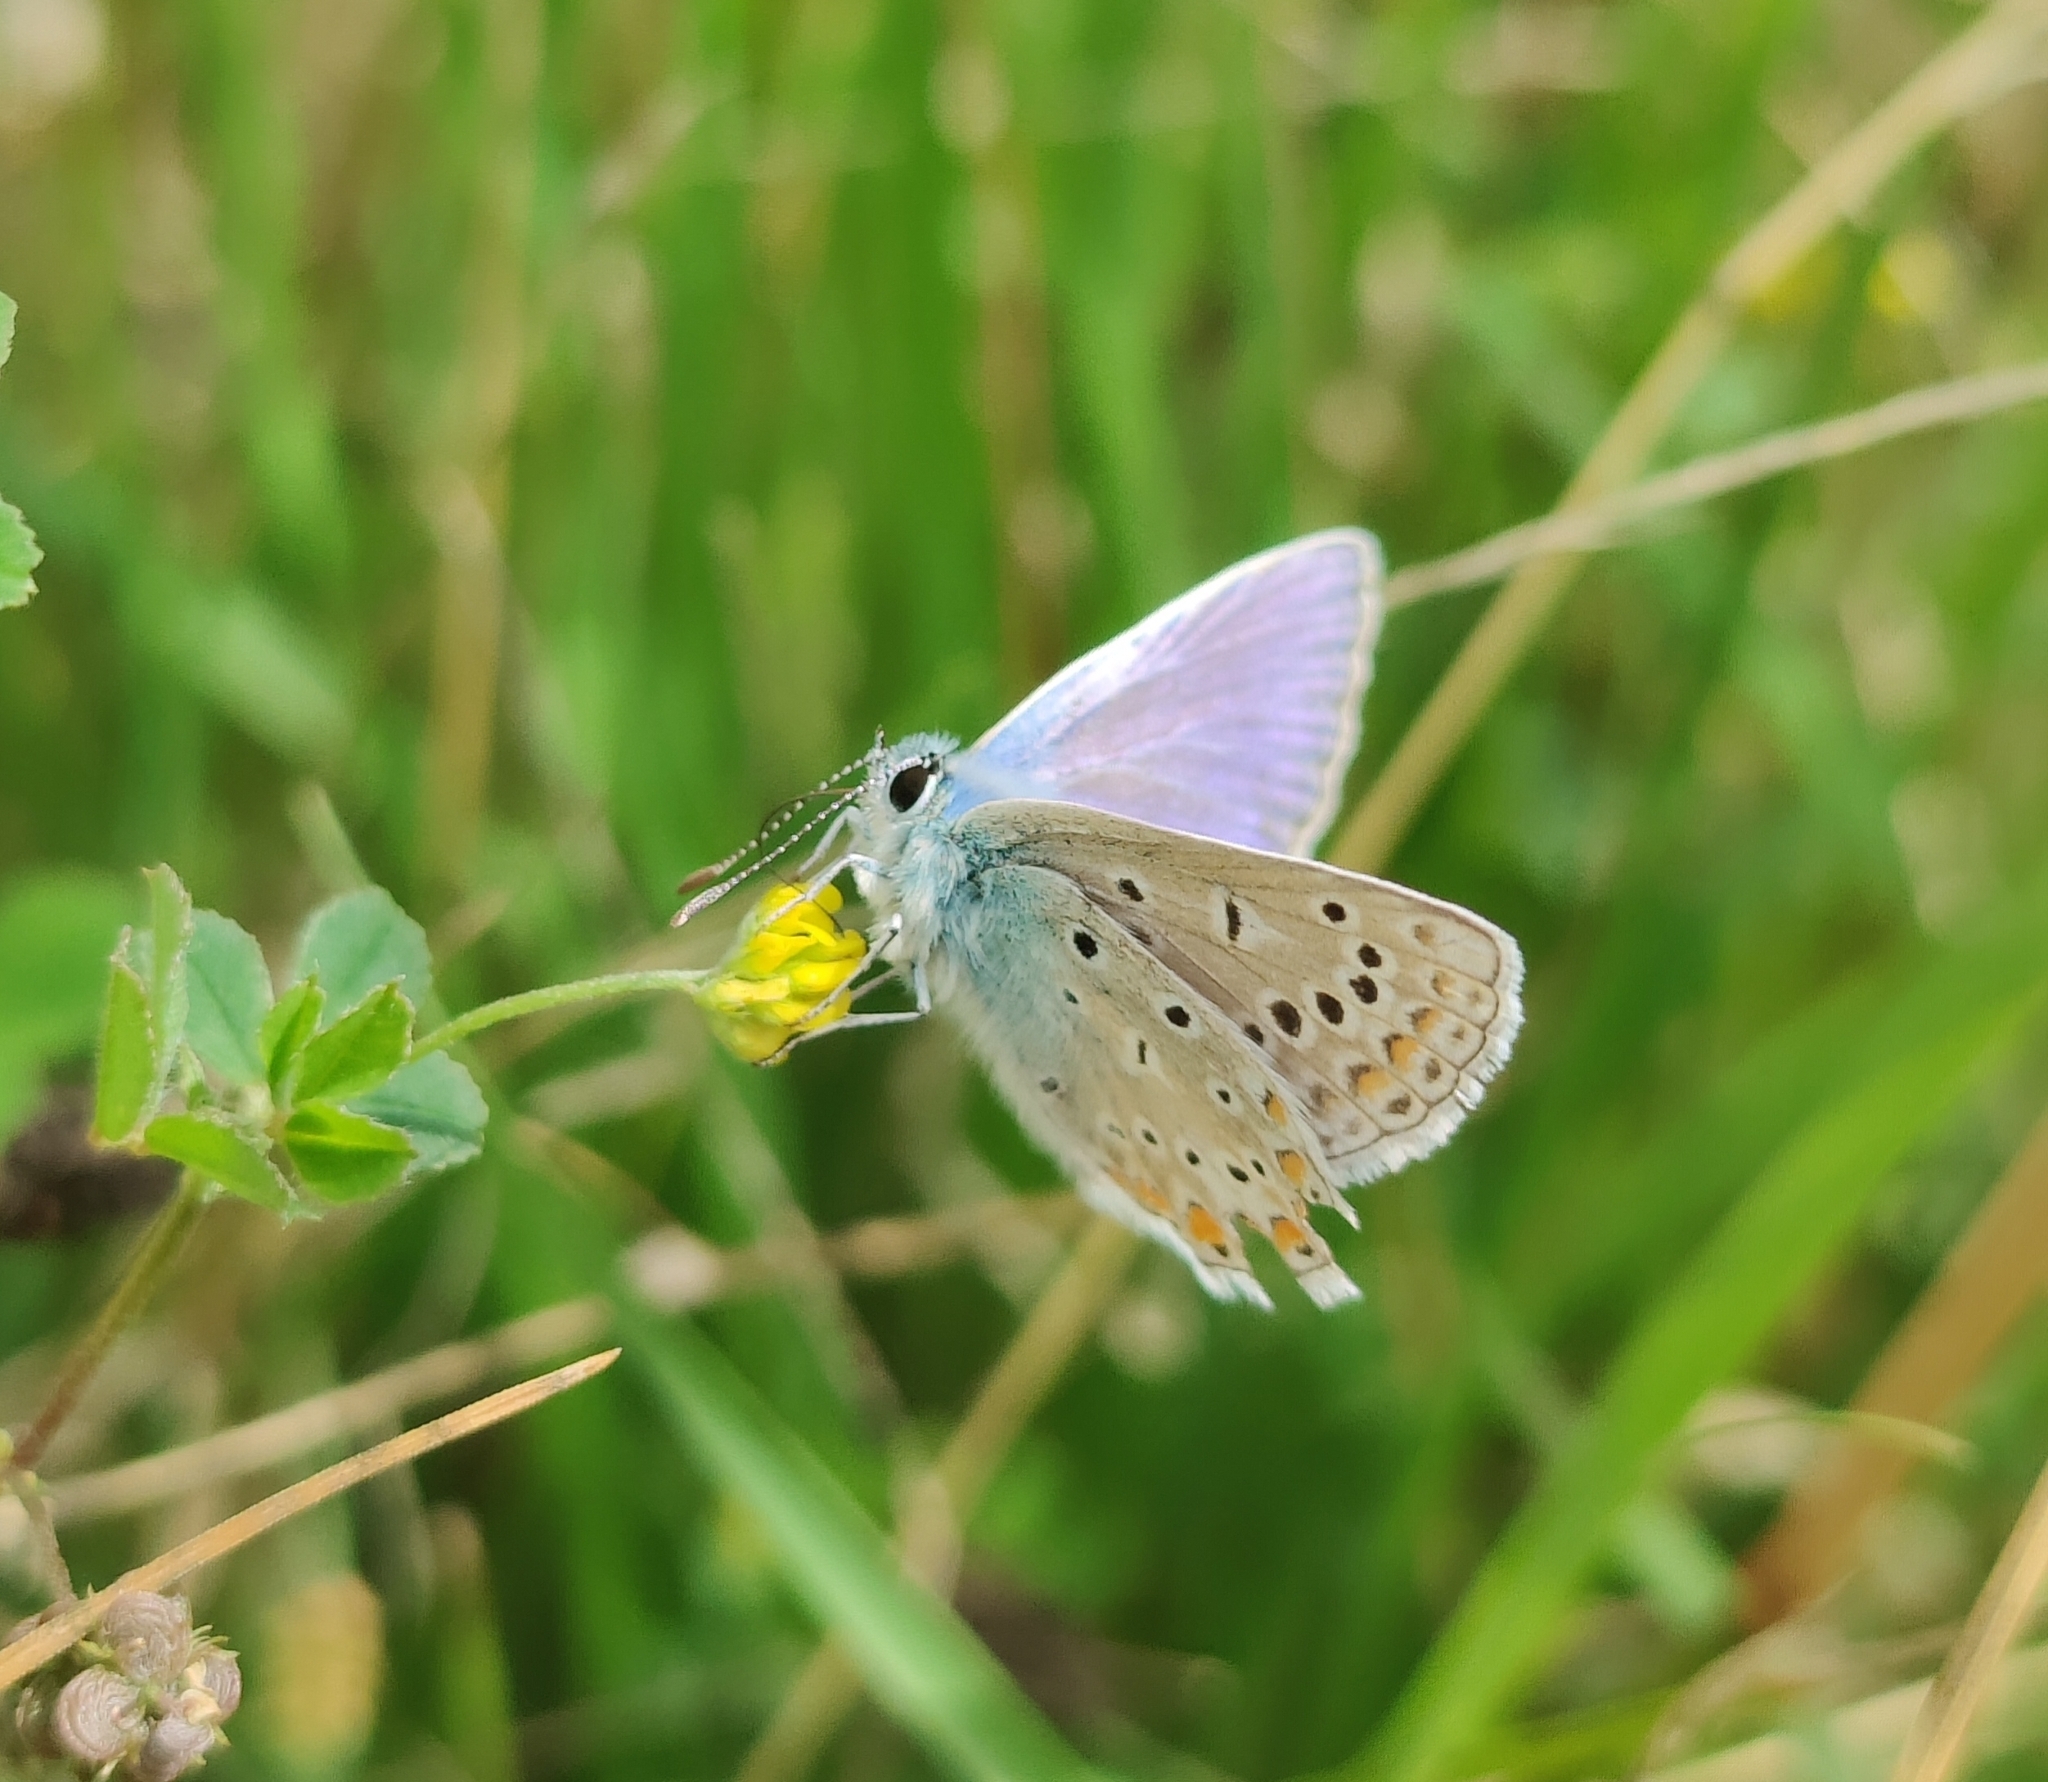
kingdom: Animalia
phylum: Arthropoda
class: Insecta
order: Lepidoptera
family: Lycaenidae
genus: Polyommatus
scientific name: Polyommatus icarus
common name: Common blue
